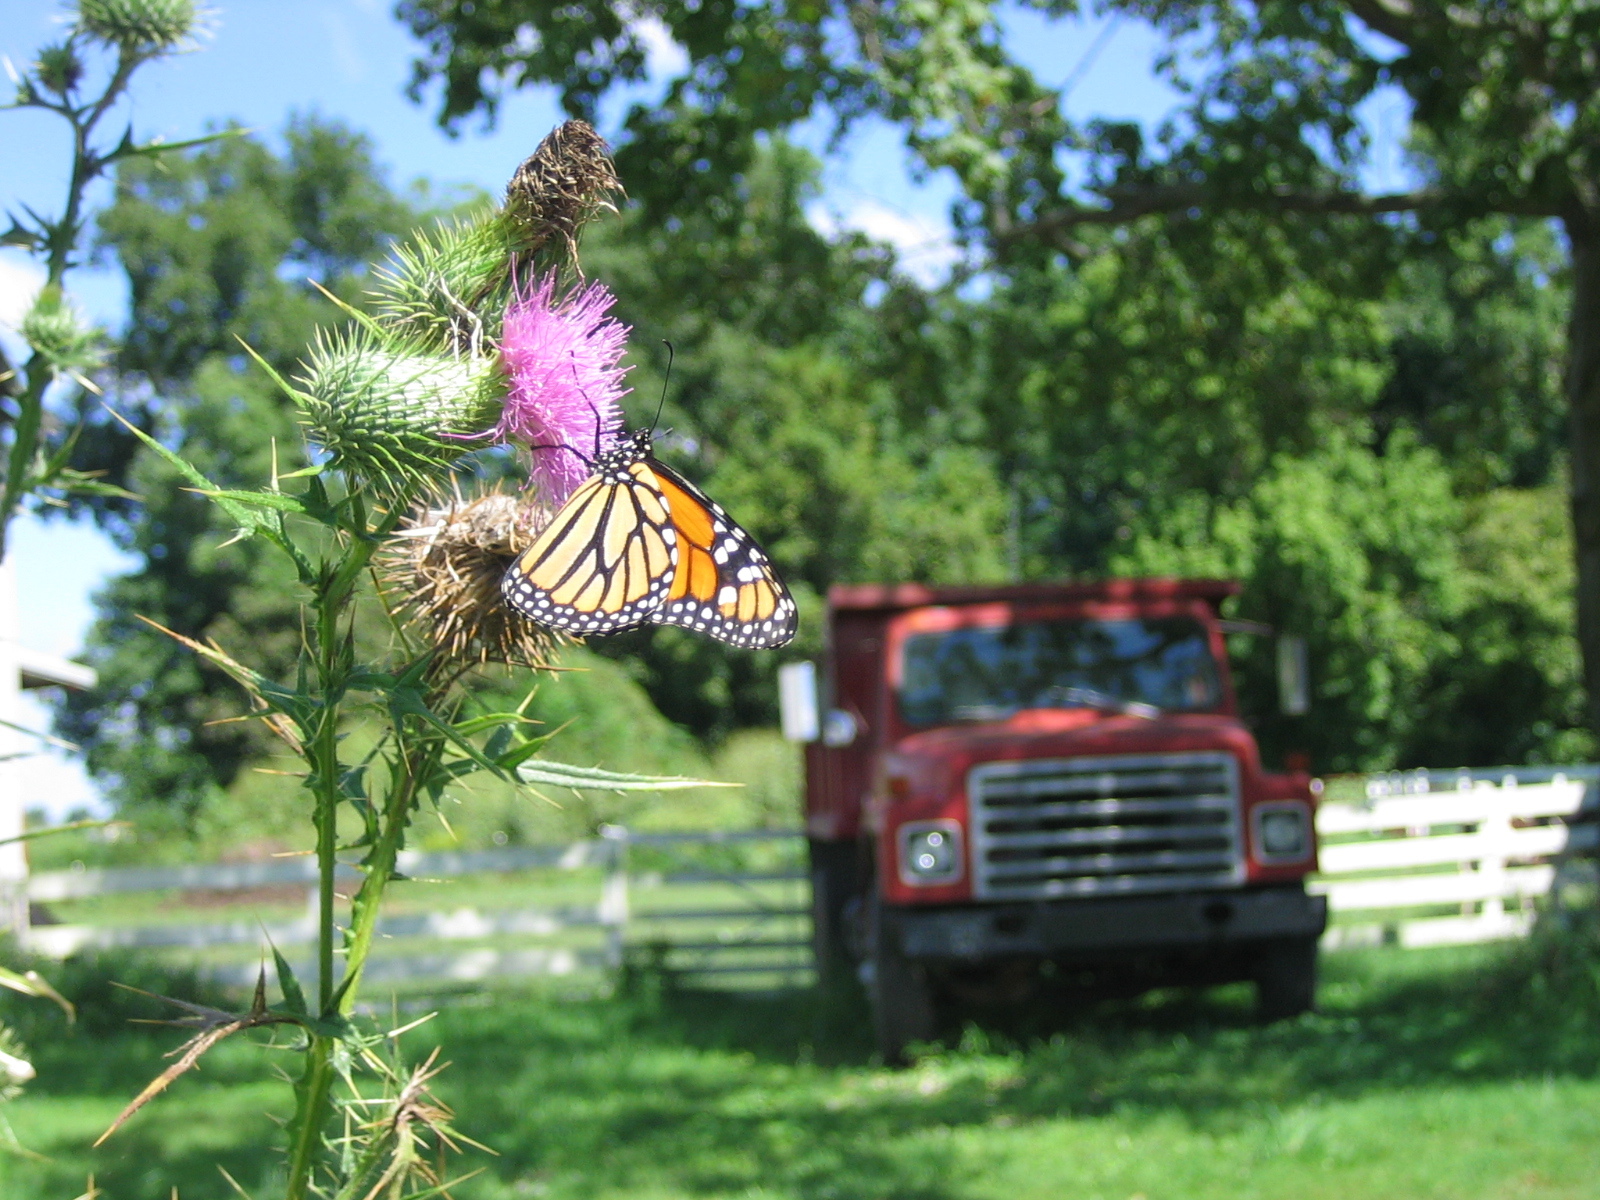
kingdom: Animalia
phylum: Arthropoda
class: Insecta
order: Lepidoptera
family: Nymphalidae
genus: Danaus
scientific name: Danaus plexippus
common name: Monarch
